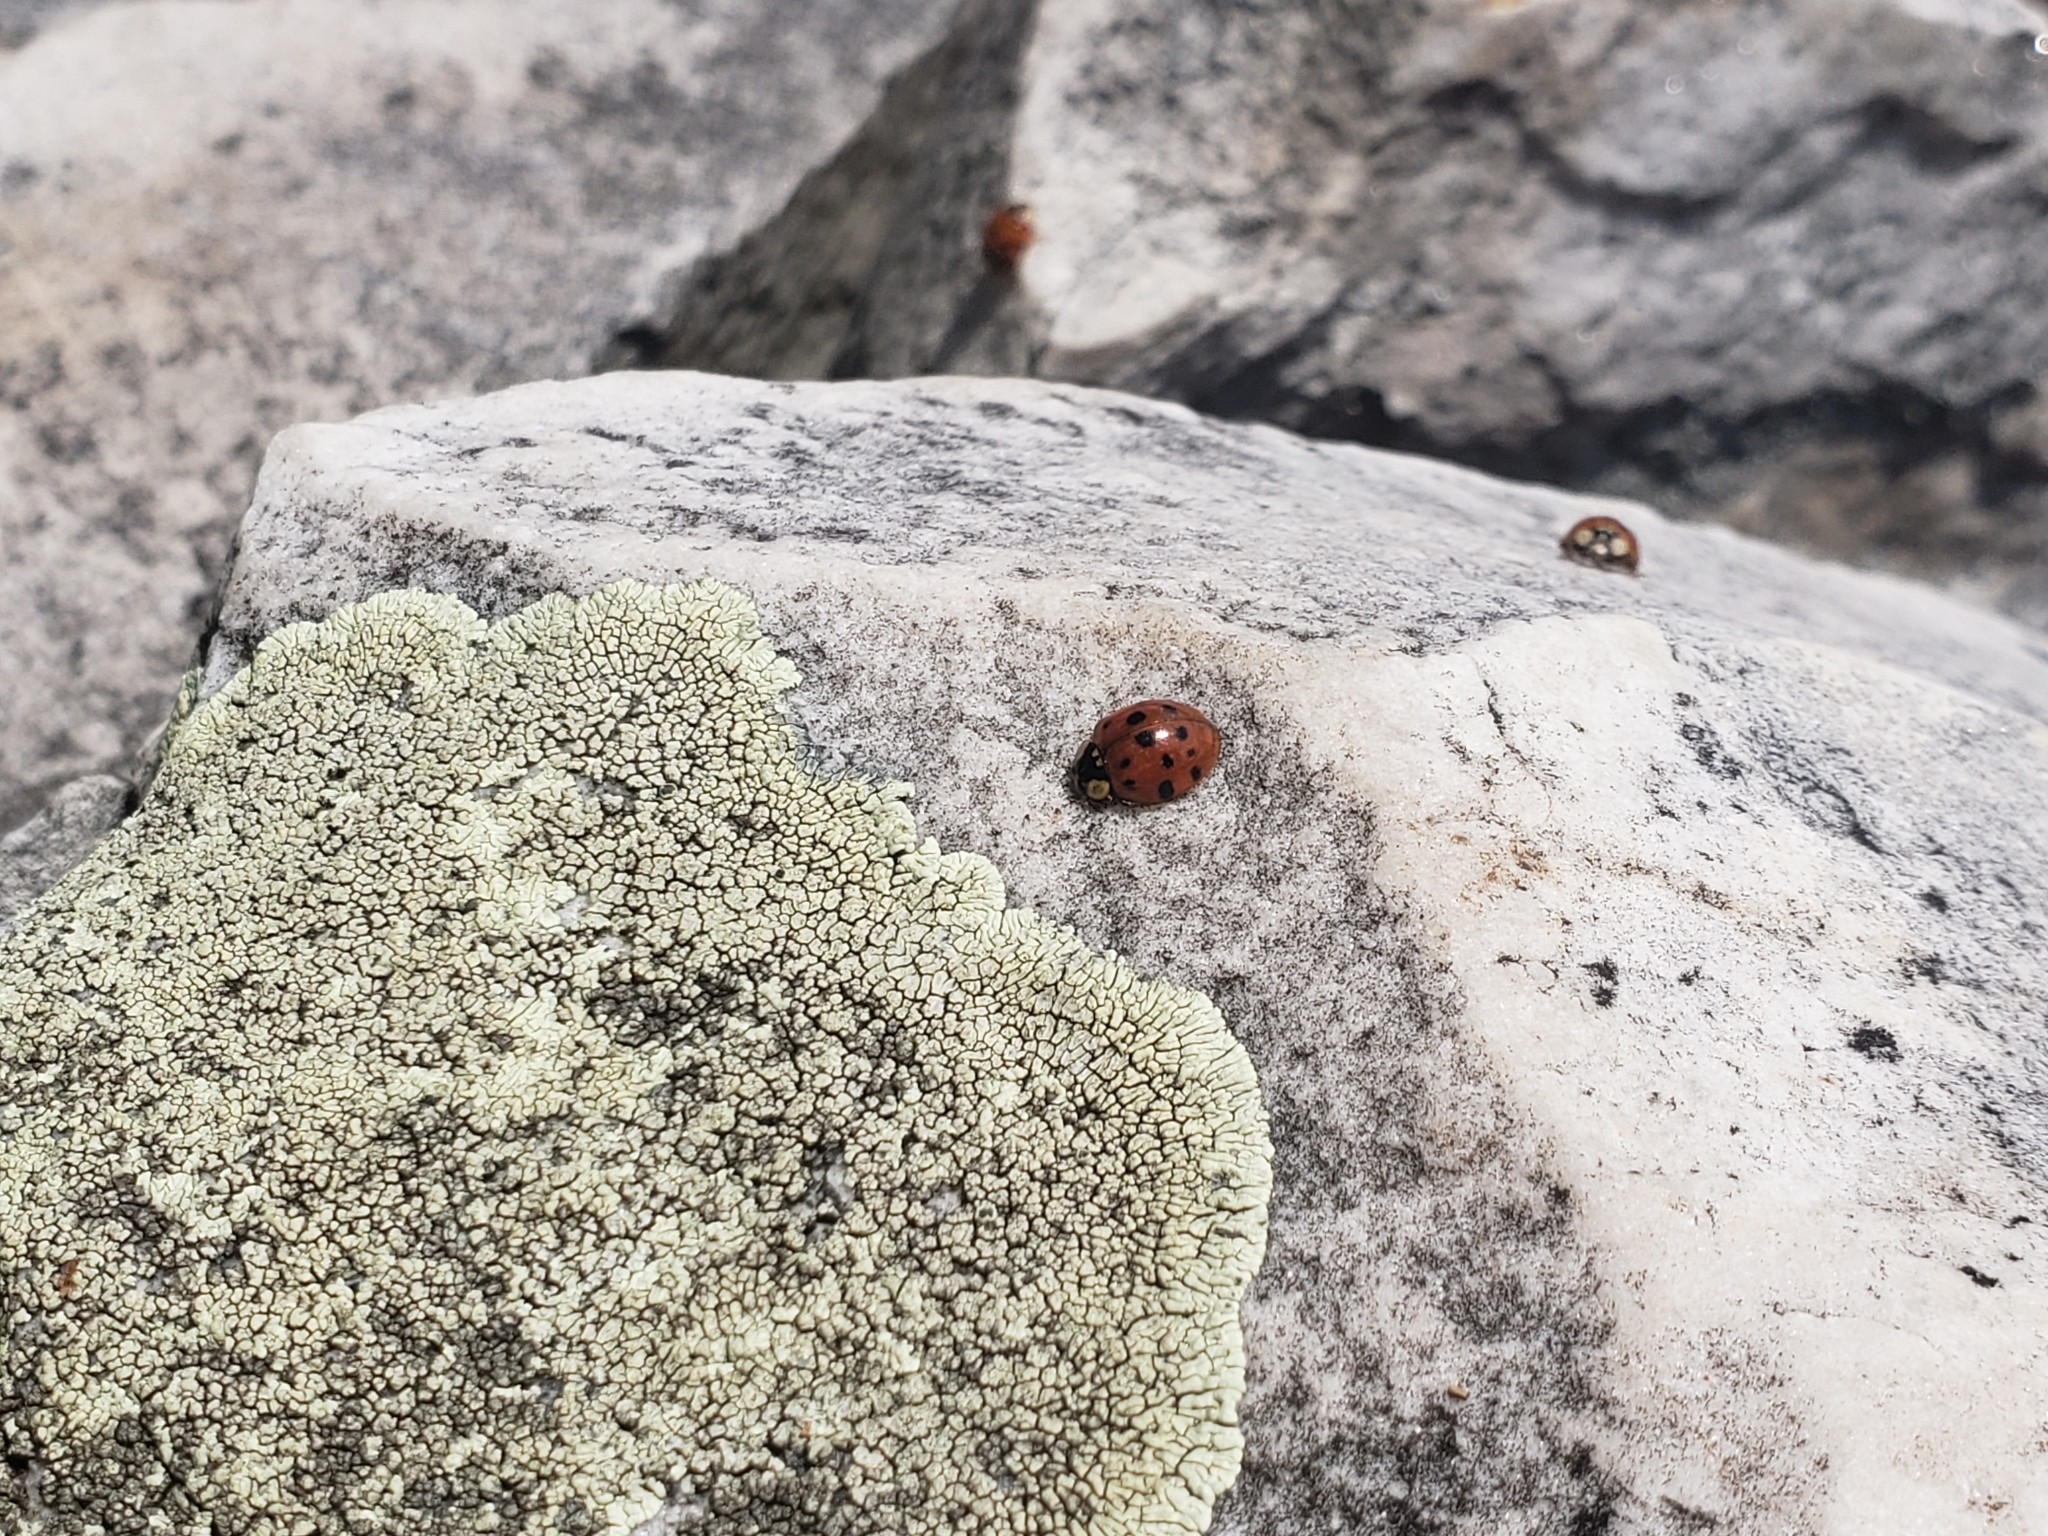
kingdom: Animalia
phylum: Arthropoda
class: Insecta
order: Coleoptera
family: Coccinellidae
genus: Harmonia
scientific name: Harmonia axyridis
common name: Harlequin ladybird
